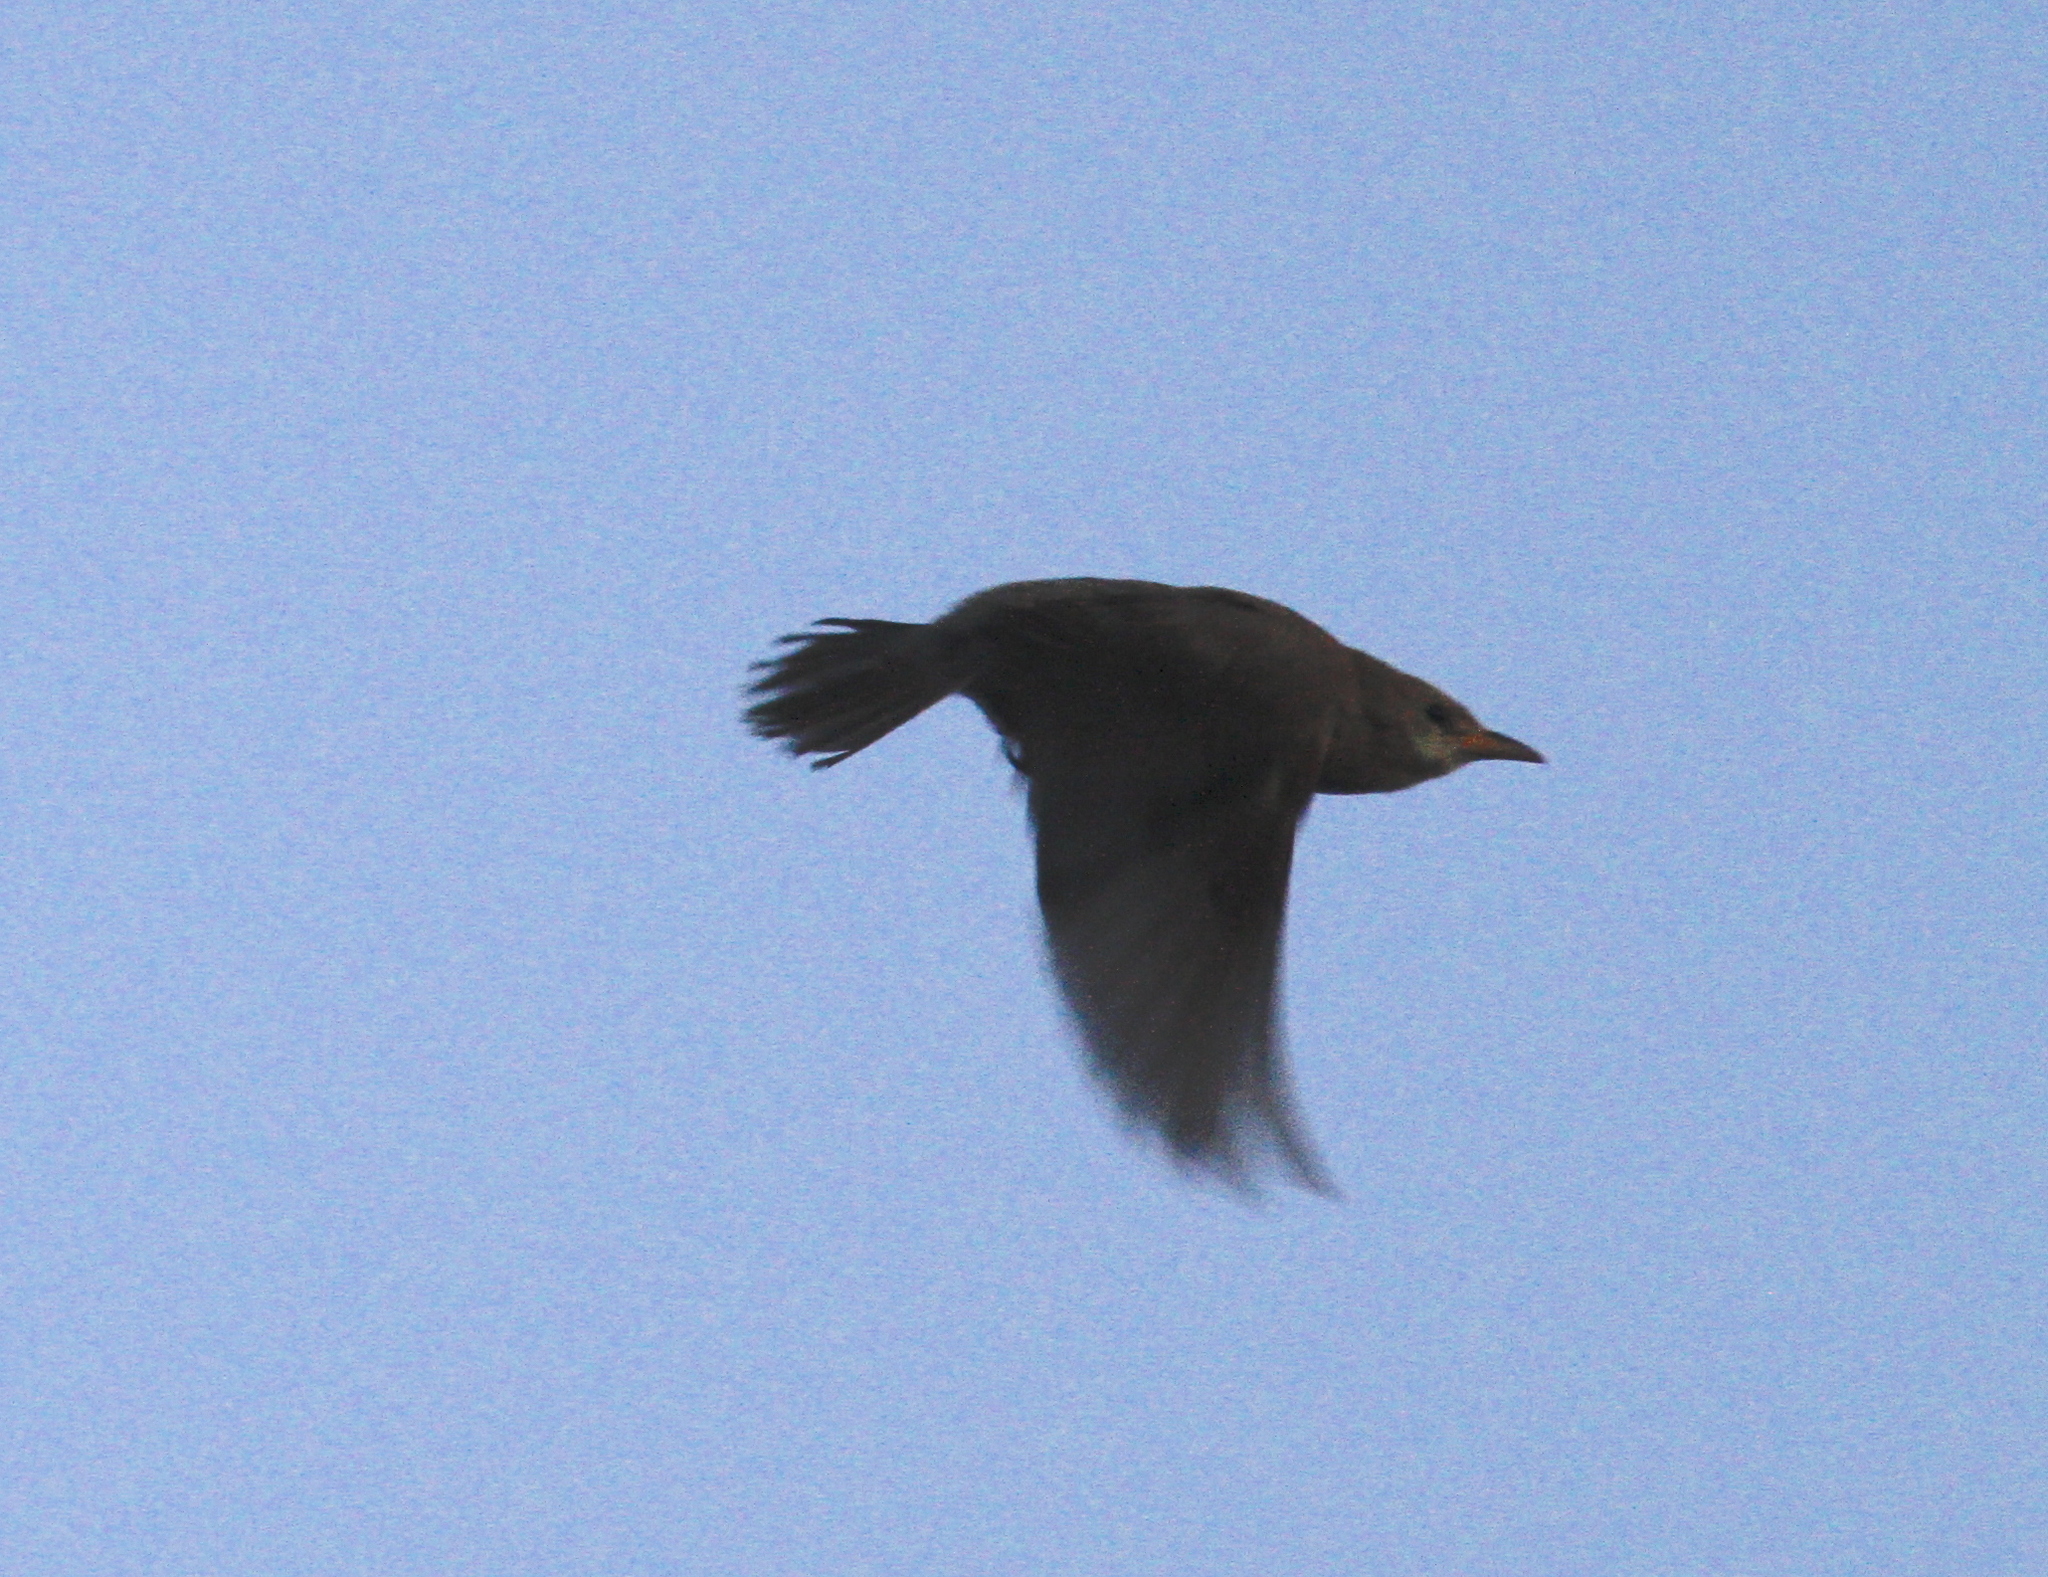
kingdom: Animalia
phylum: Chordata
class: Aves
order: Passeriformes
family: Sturnidae
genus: Pastor
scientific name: Pastor roseus
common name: Rosy starling
